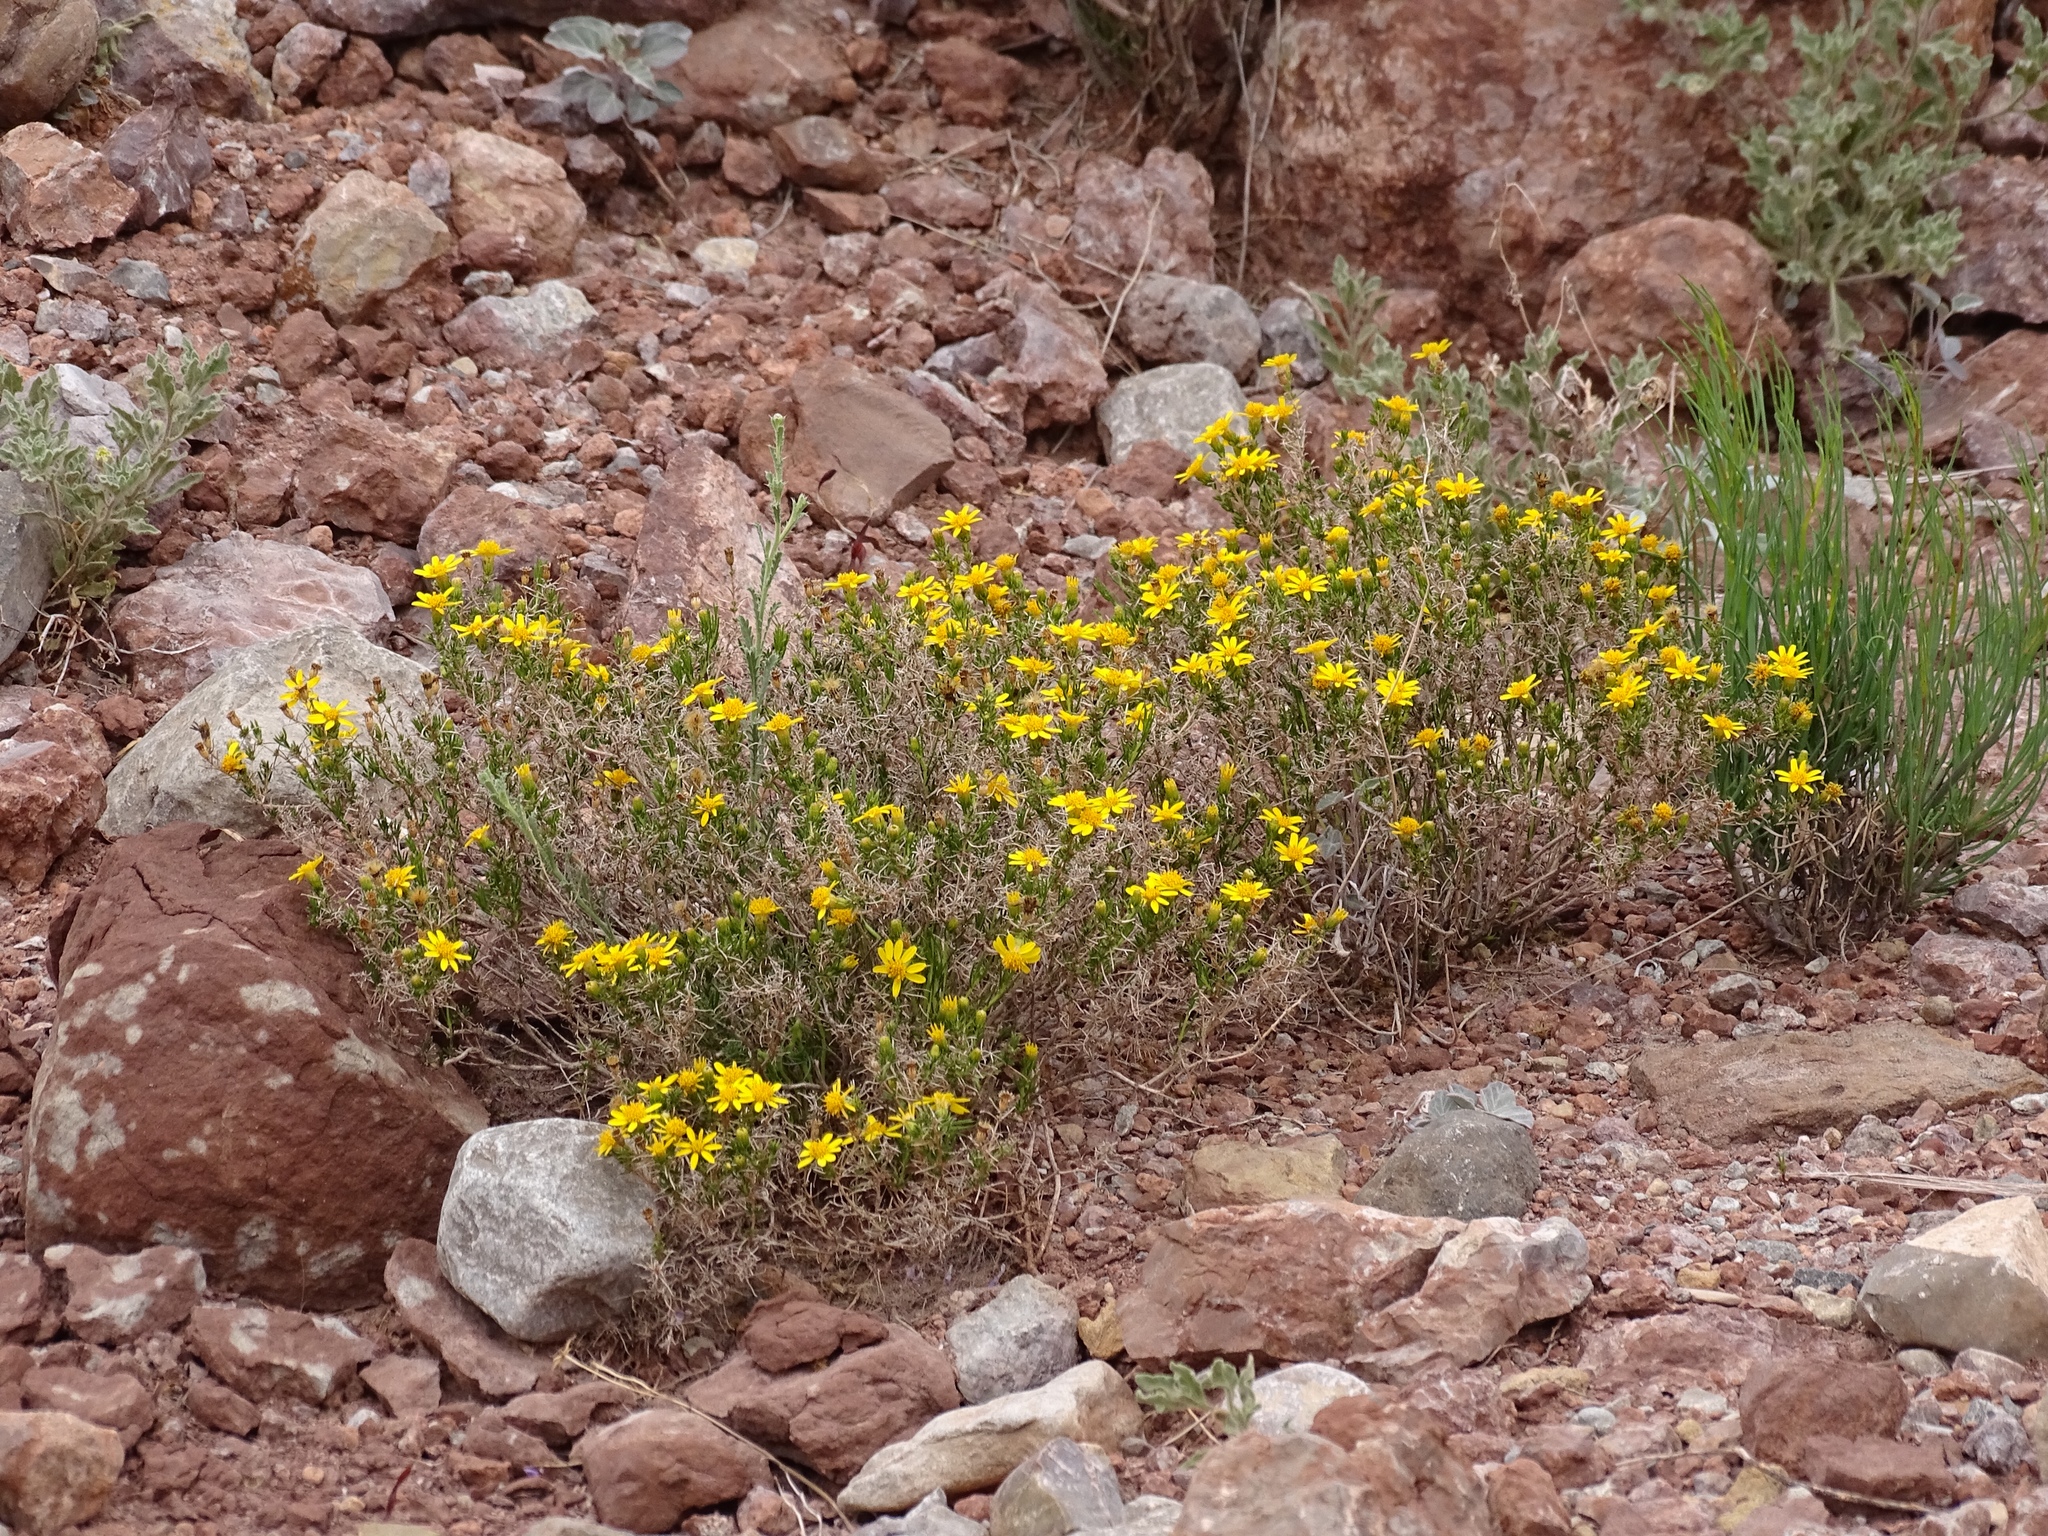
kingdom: Plantae
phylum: Tracheophyta
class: Magnoliopsida
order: Asterales
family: Asteraceae
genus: Thymophylla
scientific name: Thymophylla acerosa
